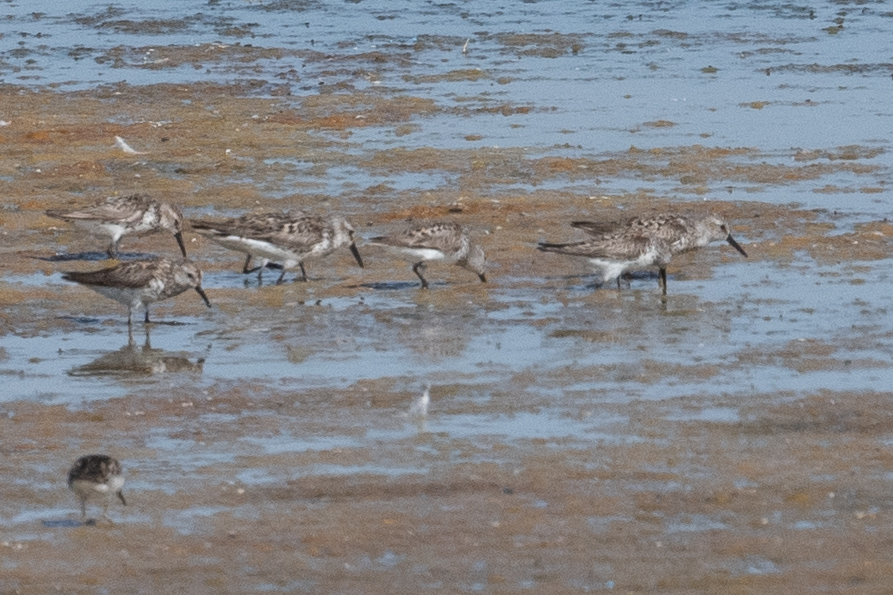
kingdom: Animalia
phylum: Chordata
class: Aves
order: Charadriiformes
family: Scolopacidae
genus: Calidris
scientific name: Calidris mauri
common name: Western sandpiper
